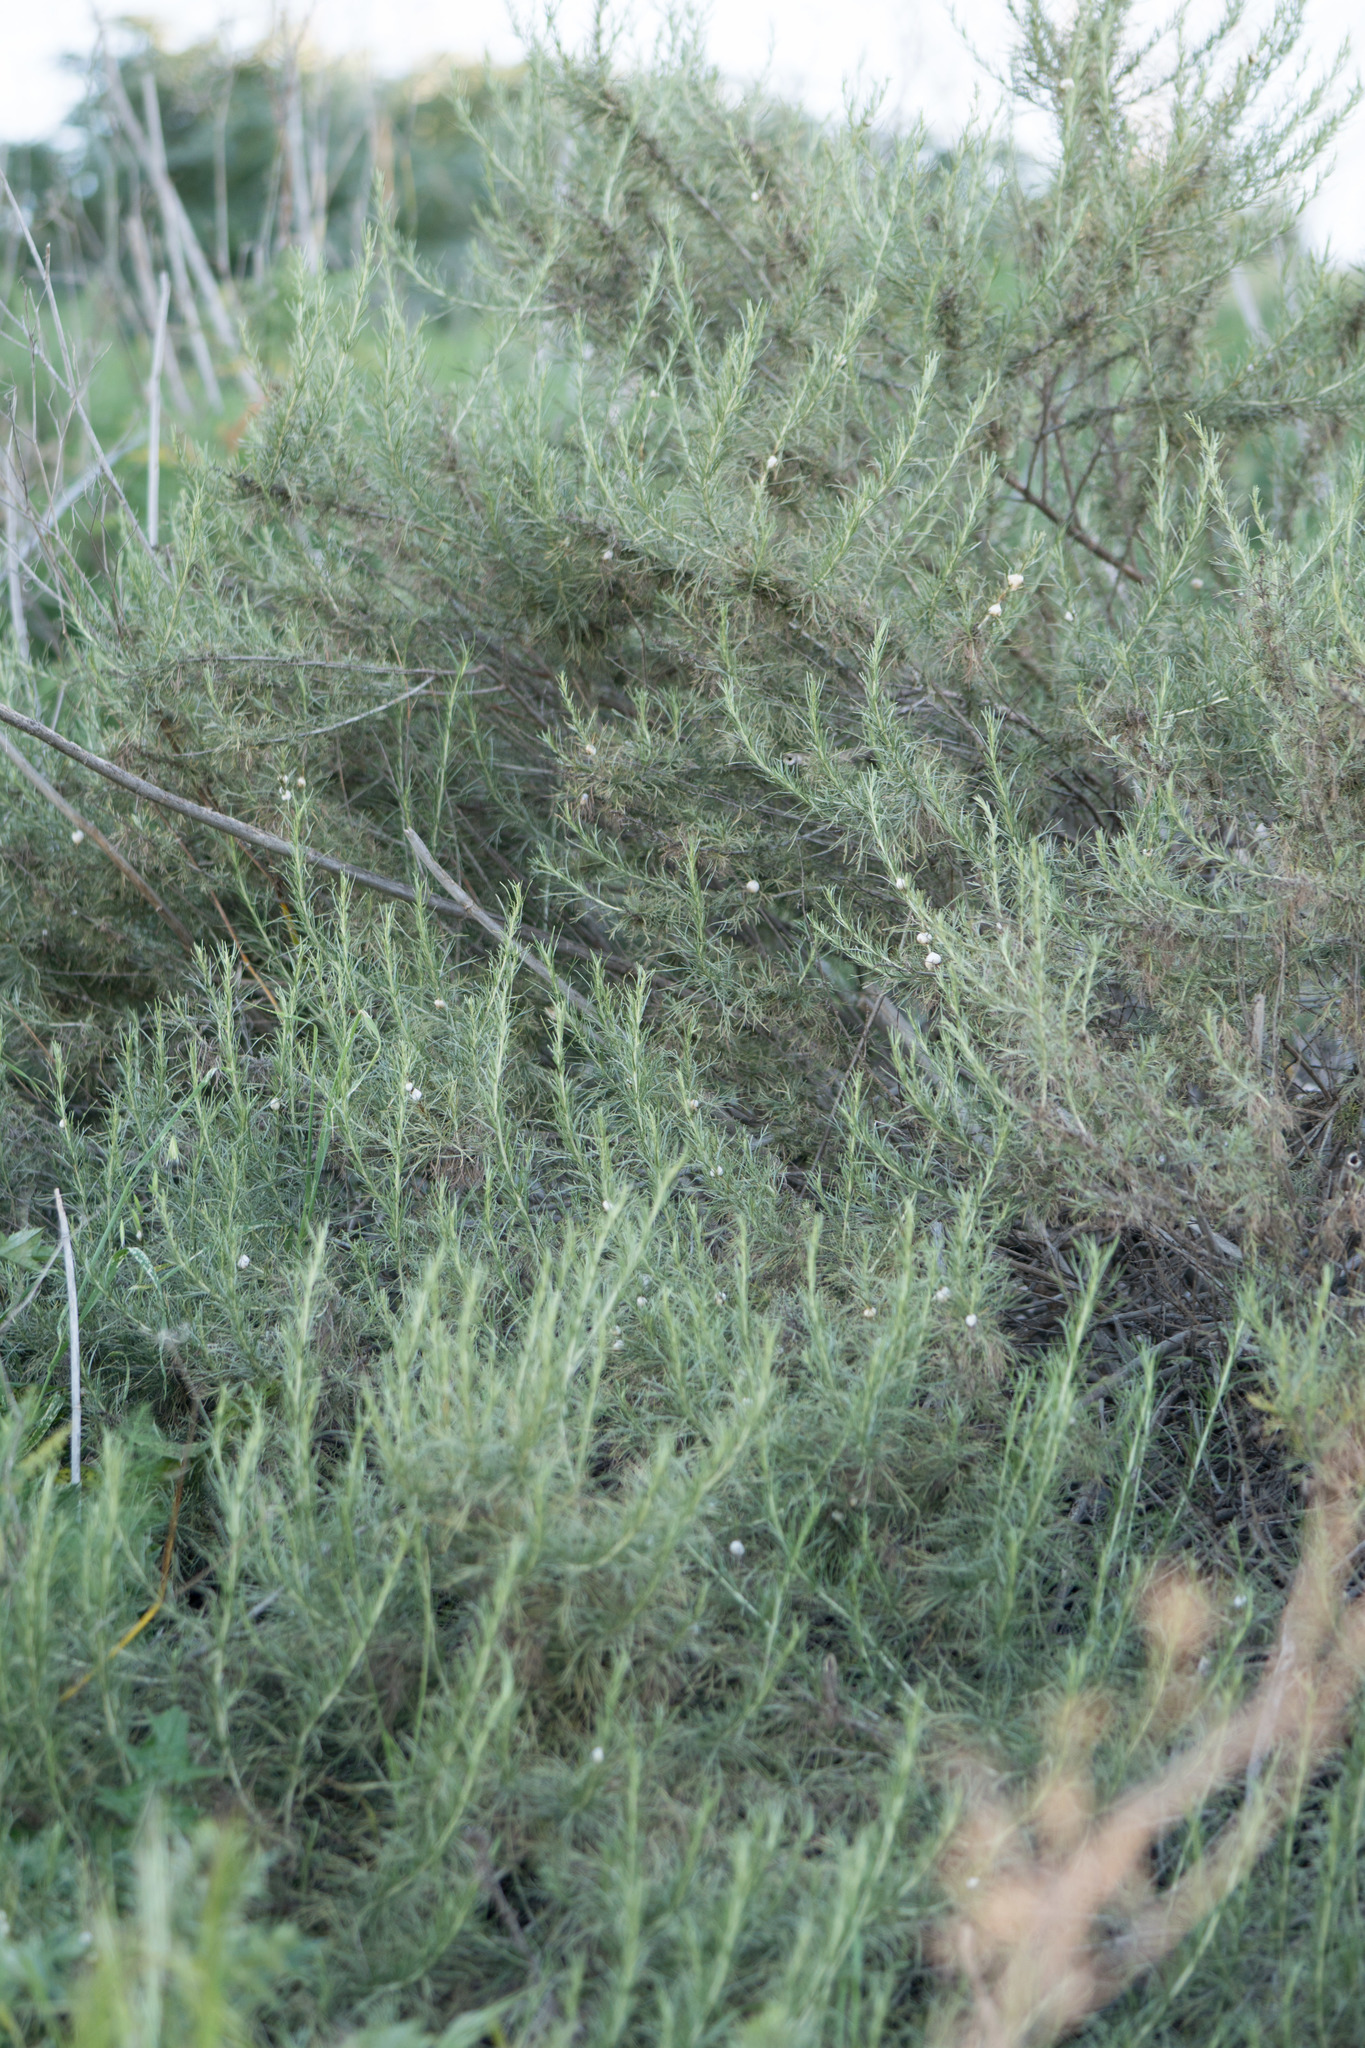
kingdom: Plantae
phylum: Tracheophyta
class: Magnoliopsida
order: Asterales
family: Asteraceae
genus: Artemisia
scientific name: Artemisia californica
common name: California sagebrush
